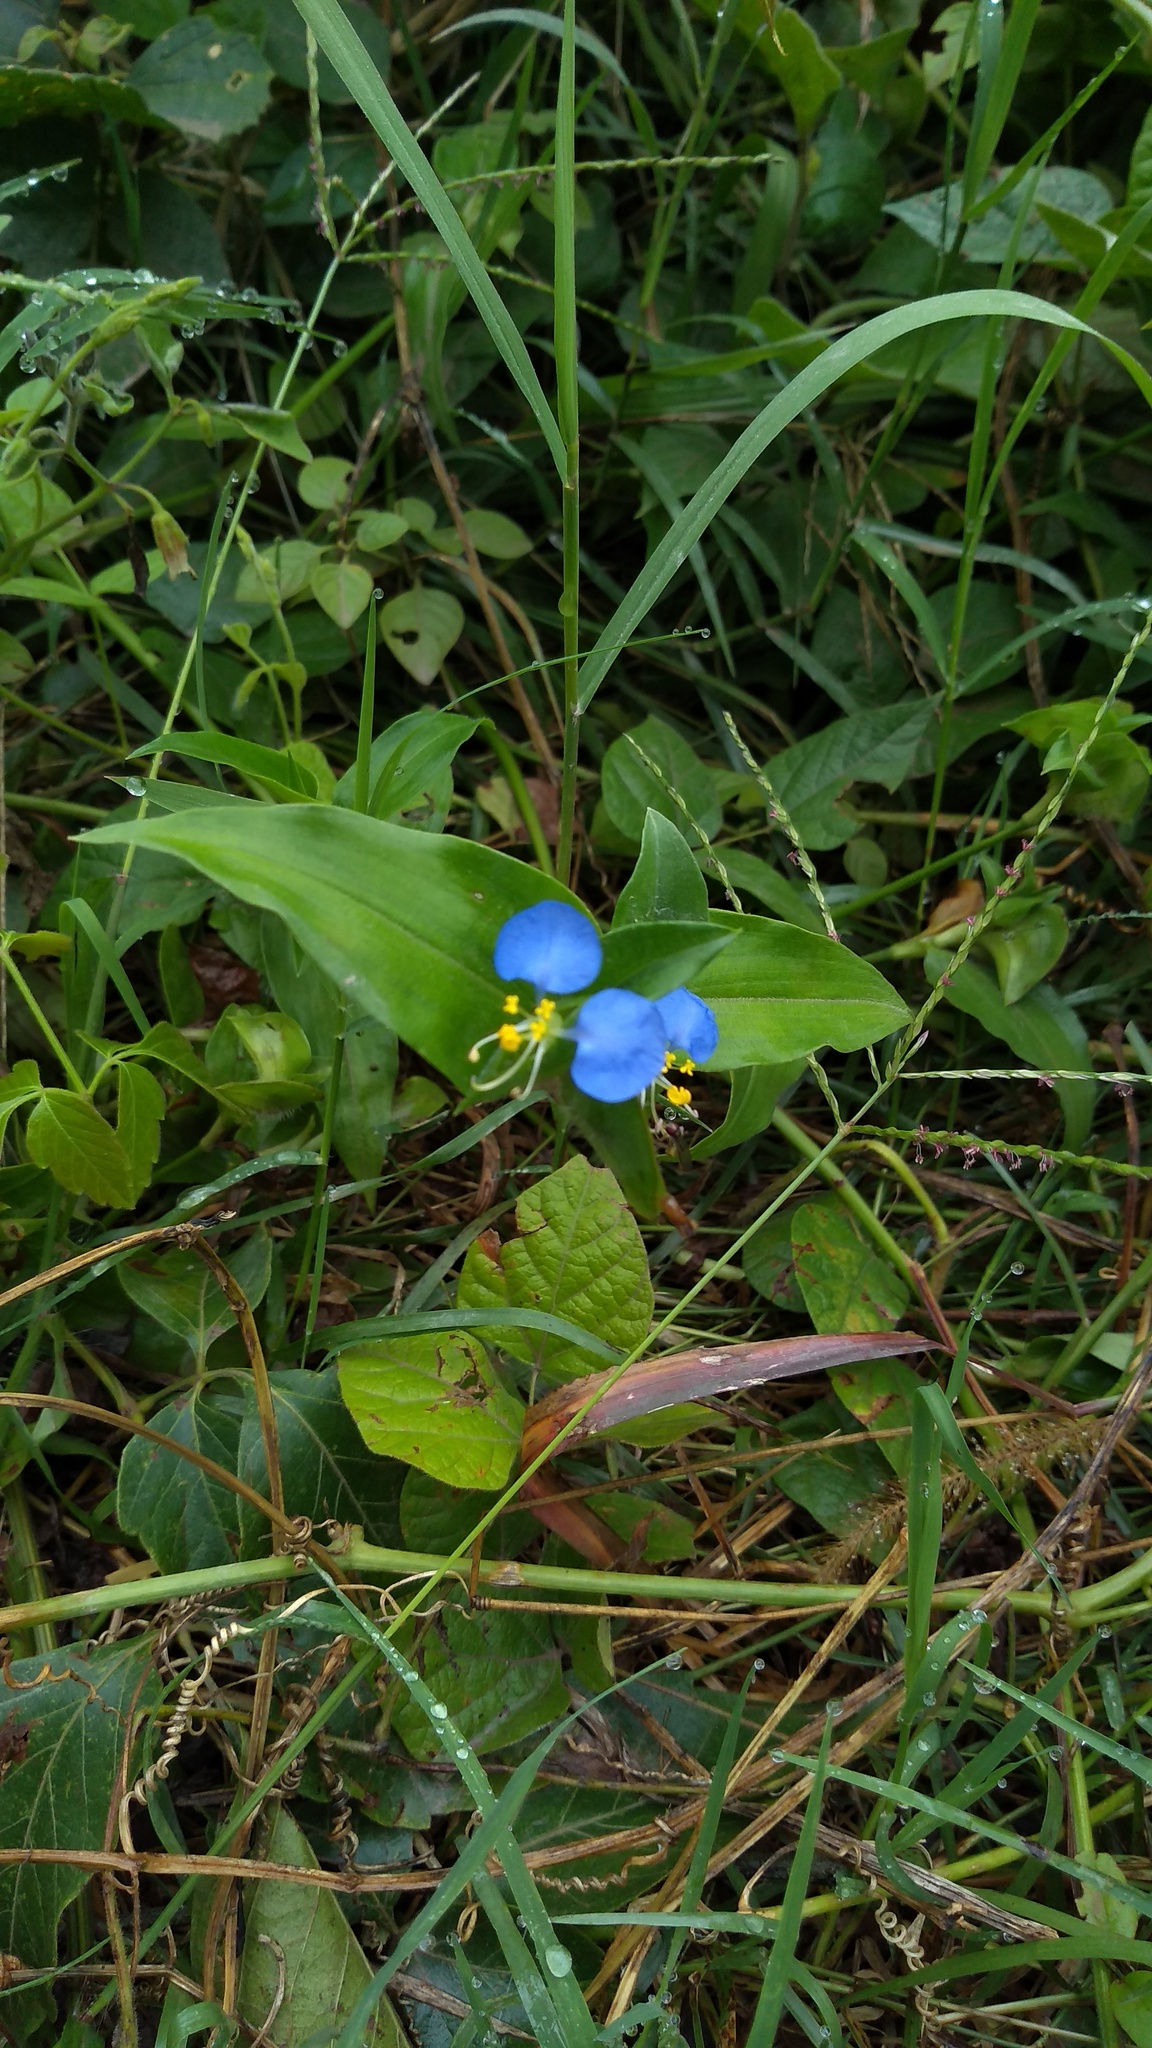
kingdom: Plantae
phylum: Tracheophyta
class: Liliopsida
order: Commelinales
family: Commelinaceae
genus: Commelina
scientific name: Commelina erecta
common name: Blousel blommetjie
